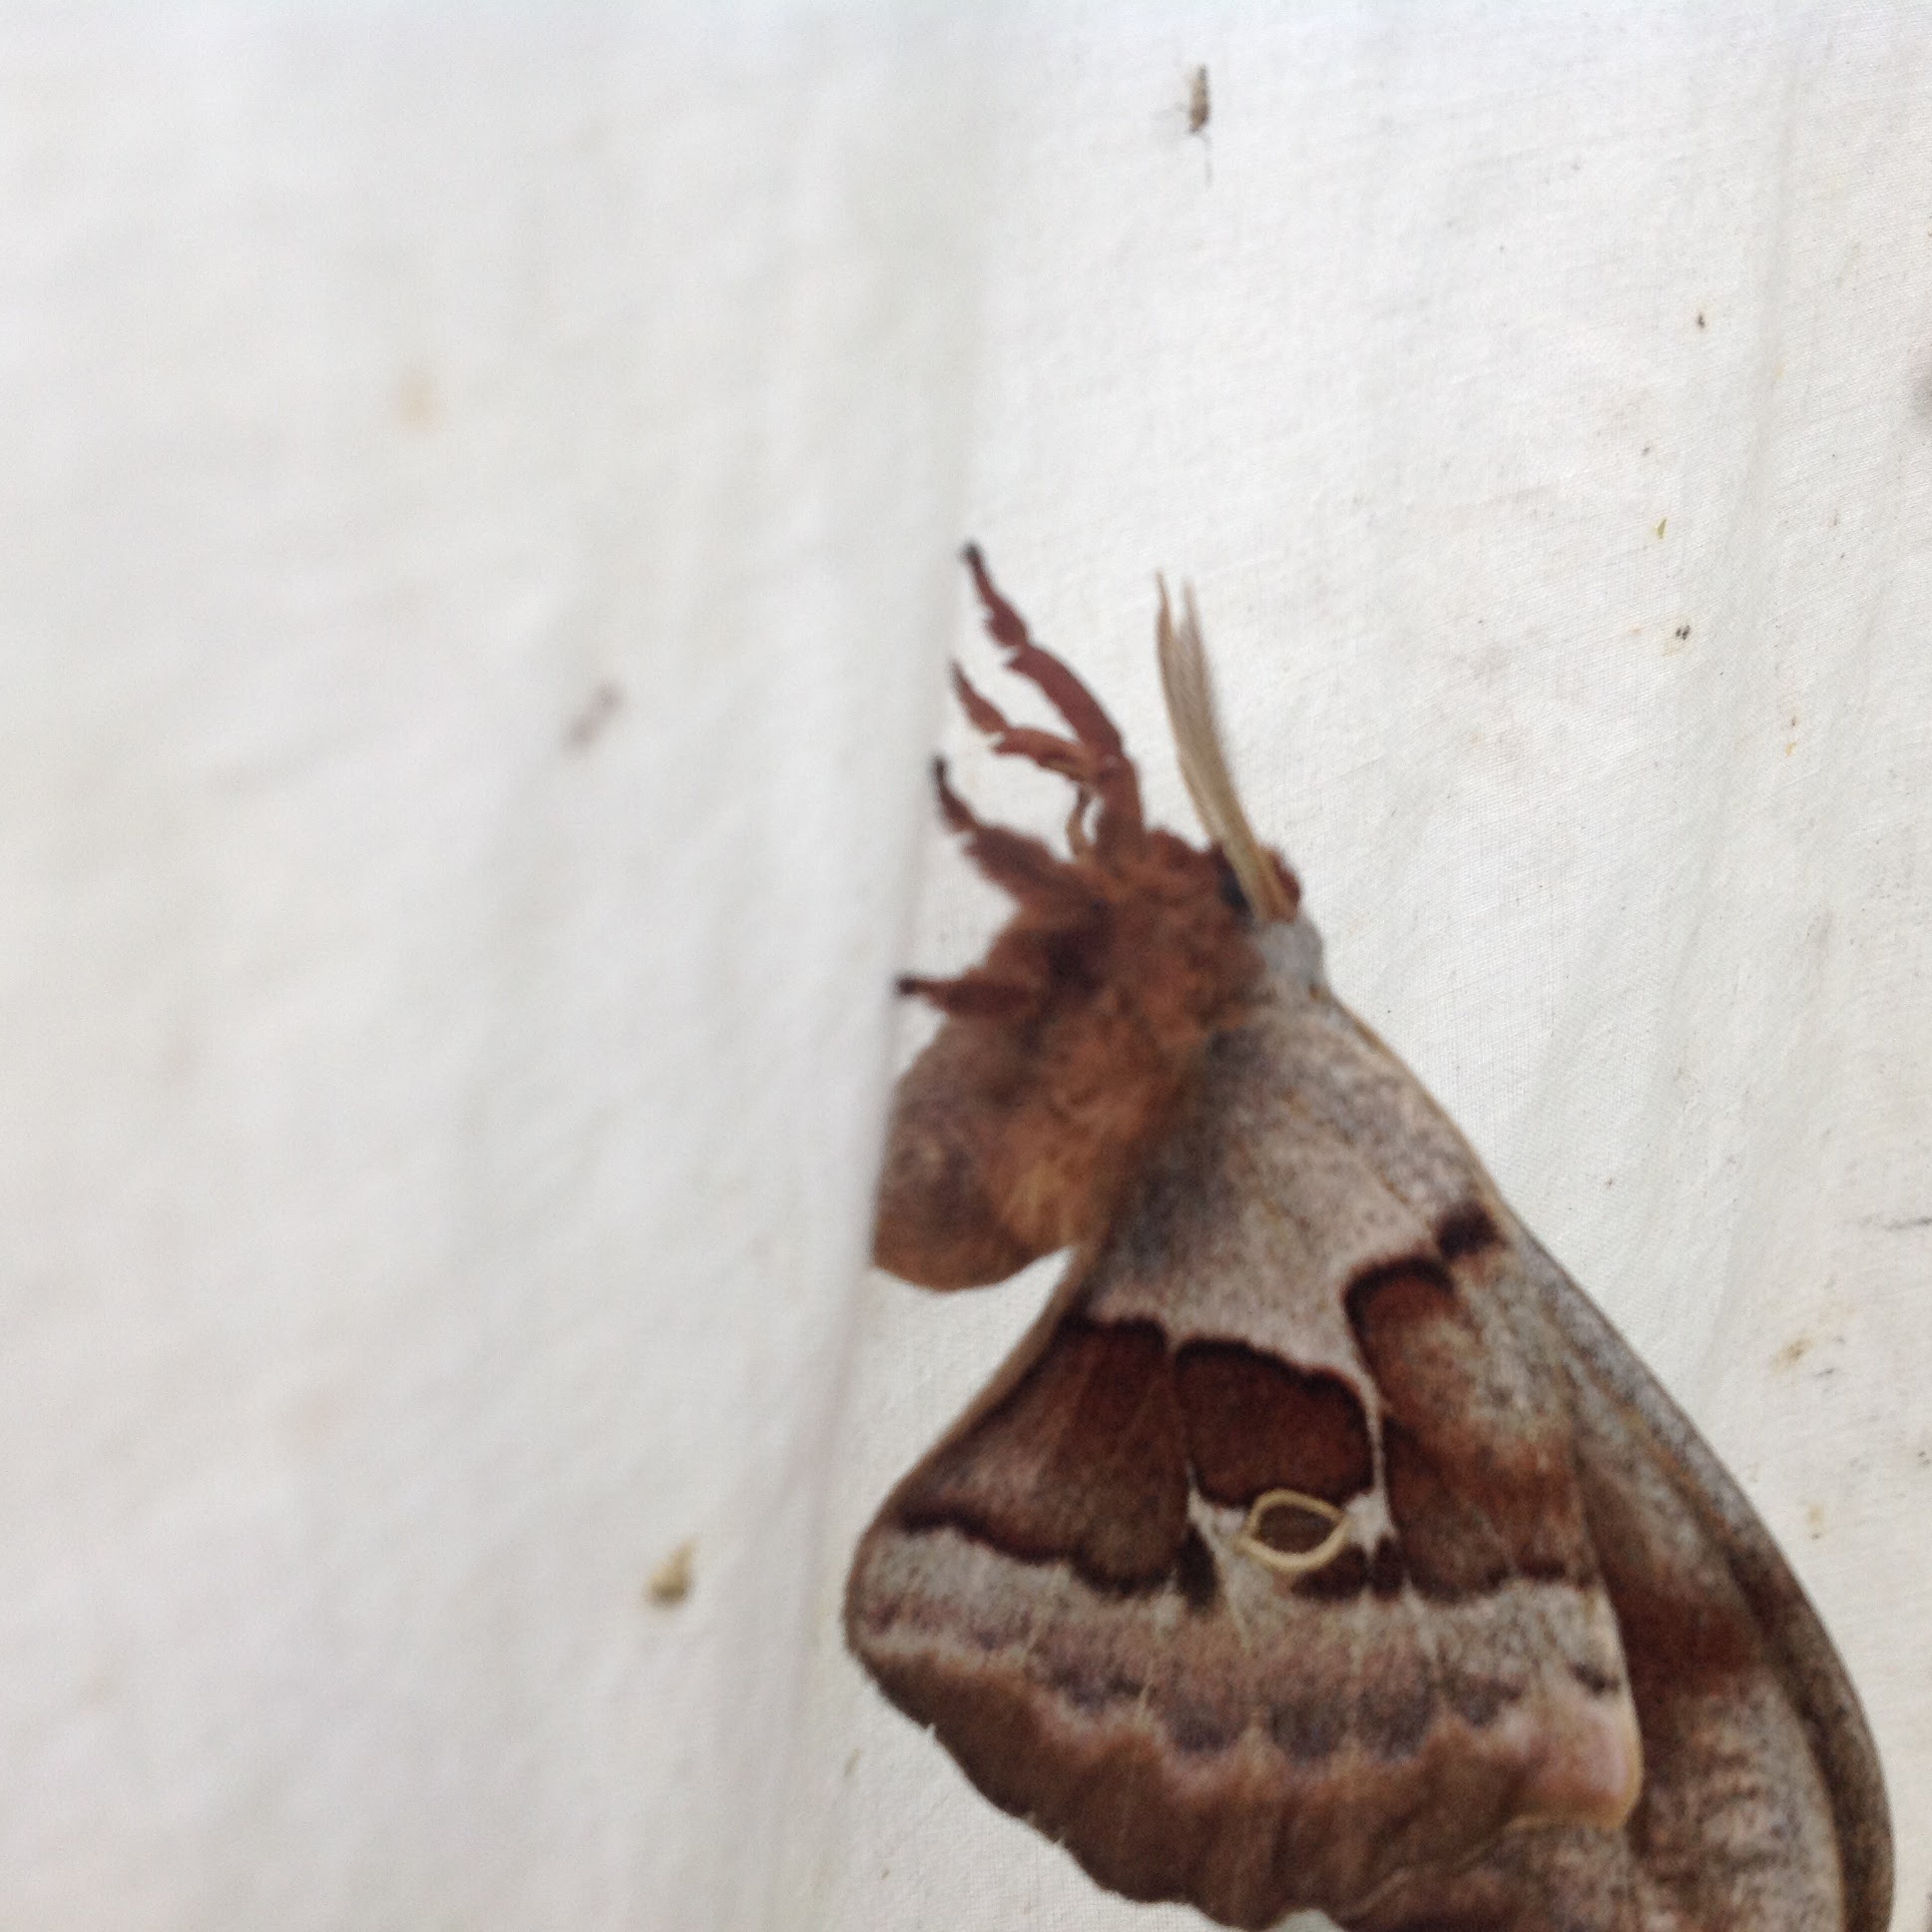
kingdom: Animalia
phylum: Arthropoda
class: Insecta
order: Lepidoptera
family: Saturniidae
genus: Antheraea
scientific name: Antheraea polyphemus
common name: Polyphemus moth
